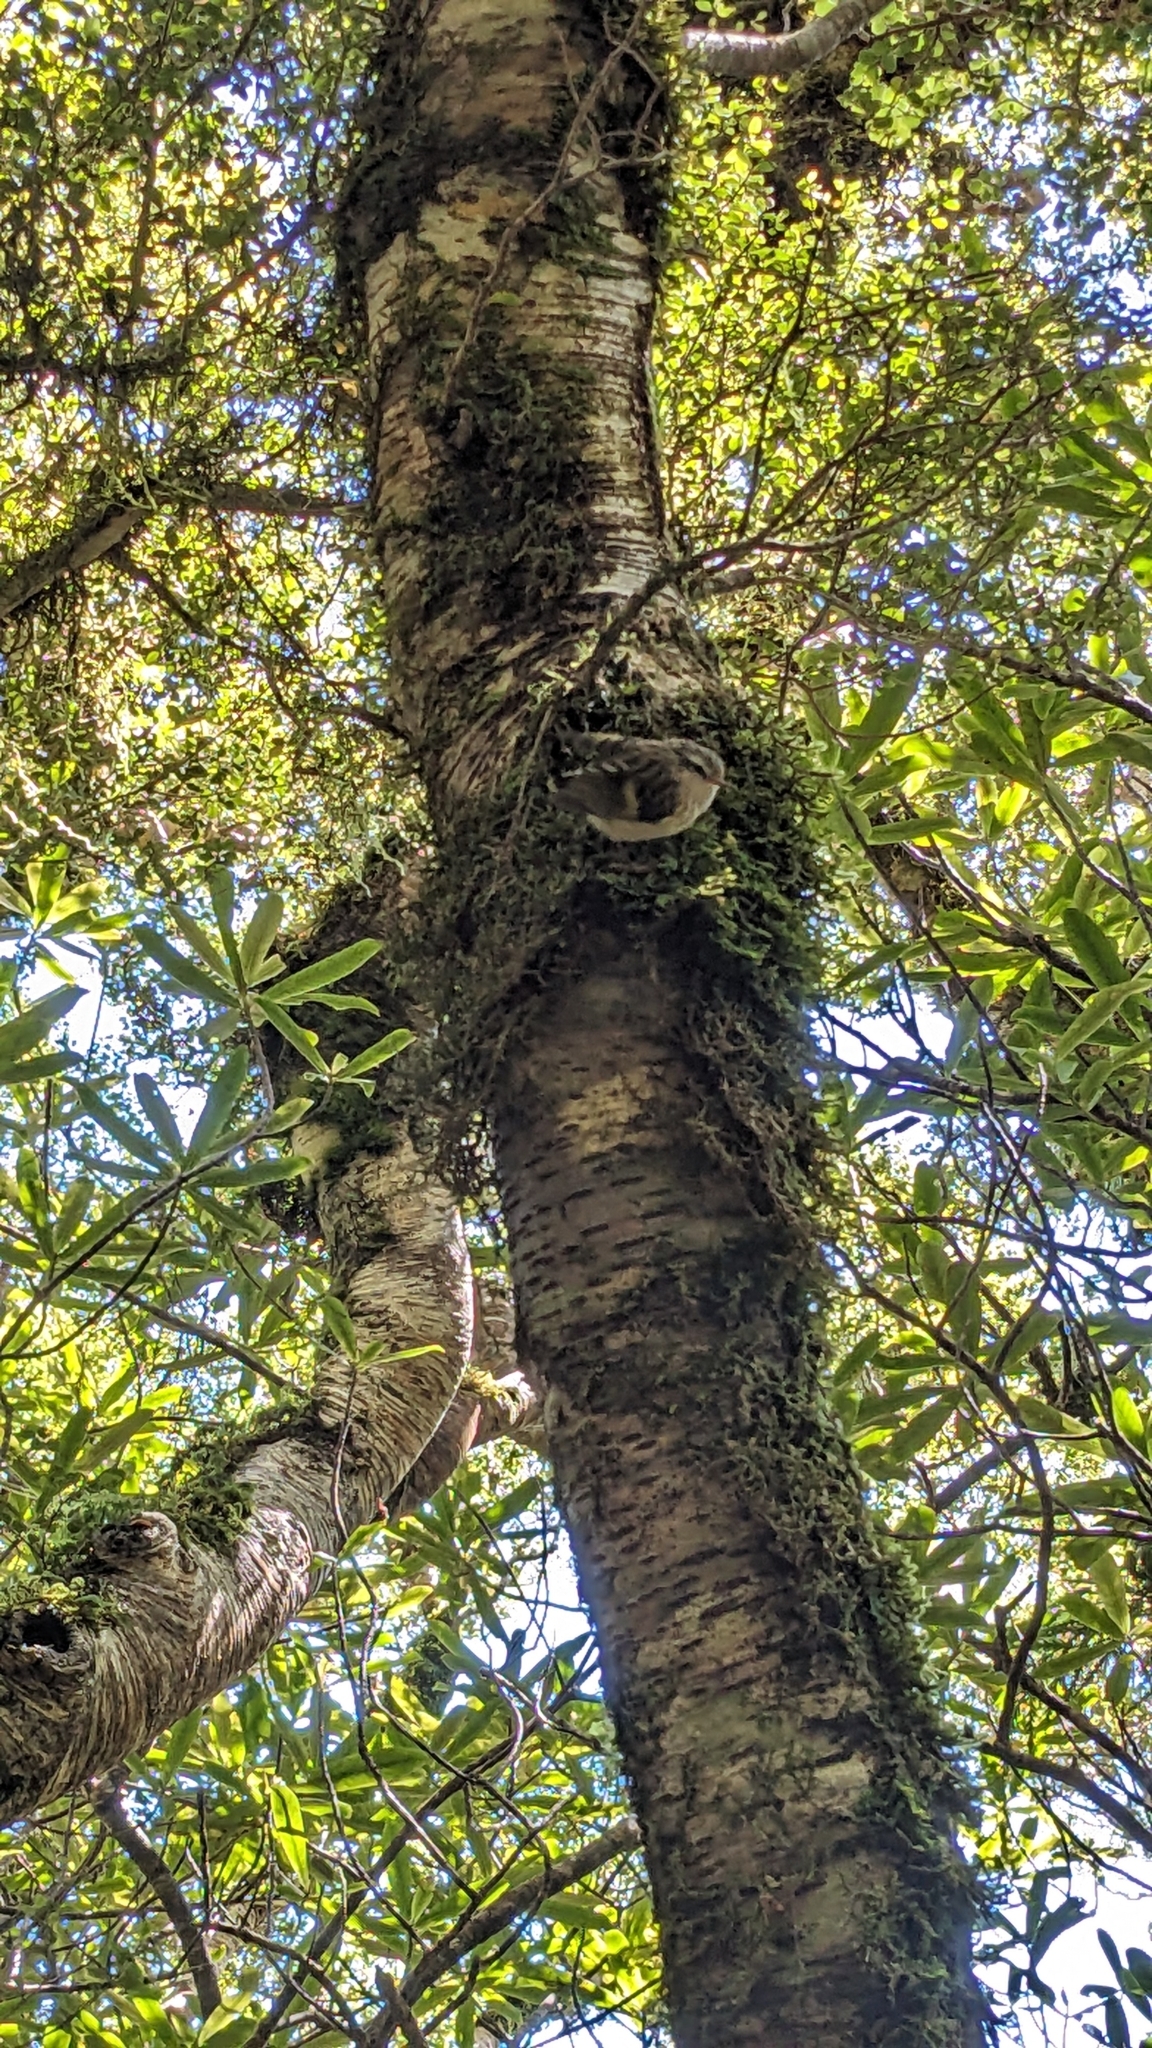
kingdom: Animalia
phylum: Chordata
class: Aves
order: Passeriformes
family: Acanthisittidae
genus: Acanthisitta
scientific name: Acanthisitta chloris
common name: Rifleman
